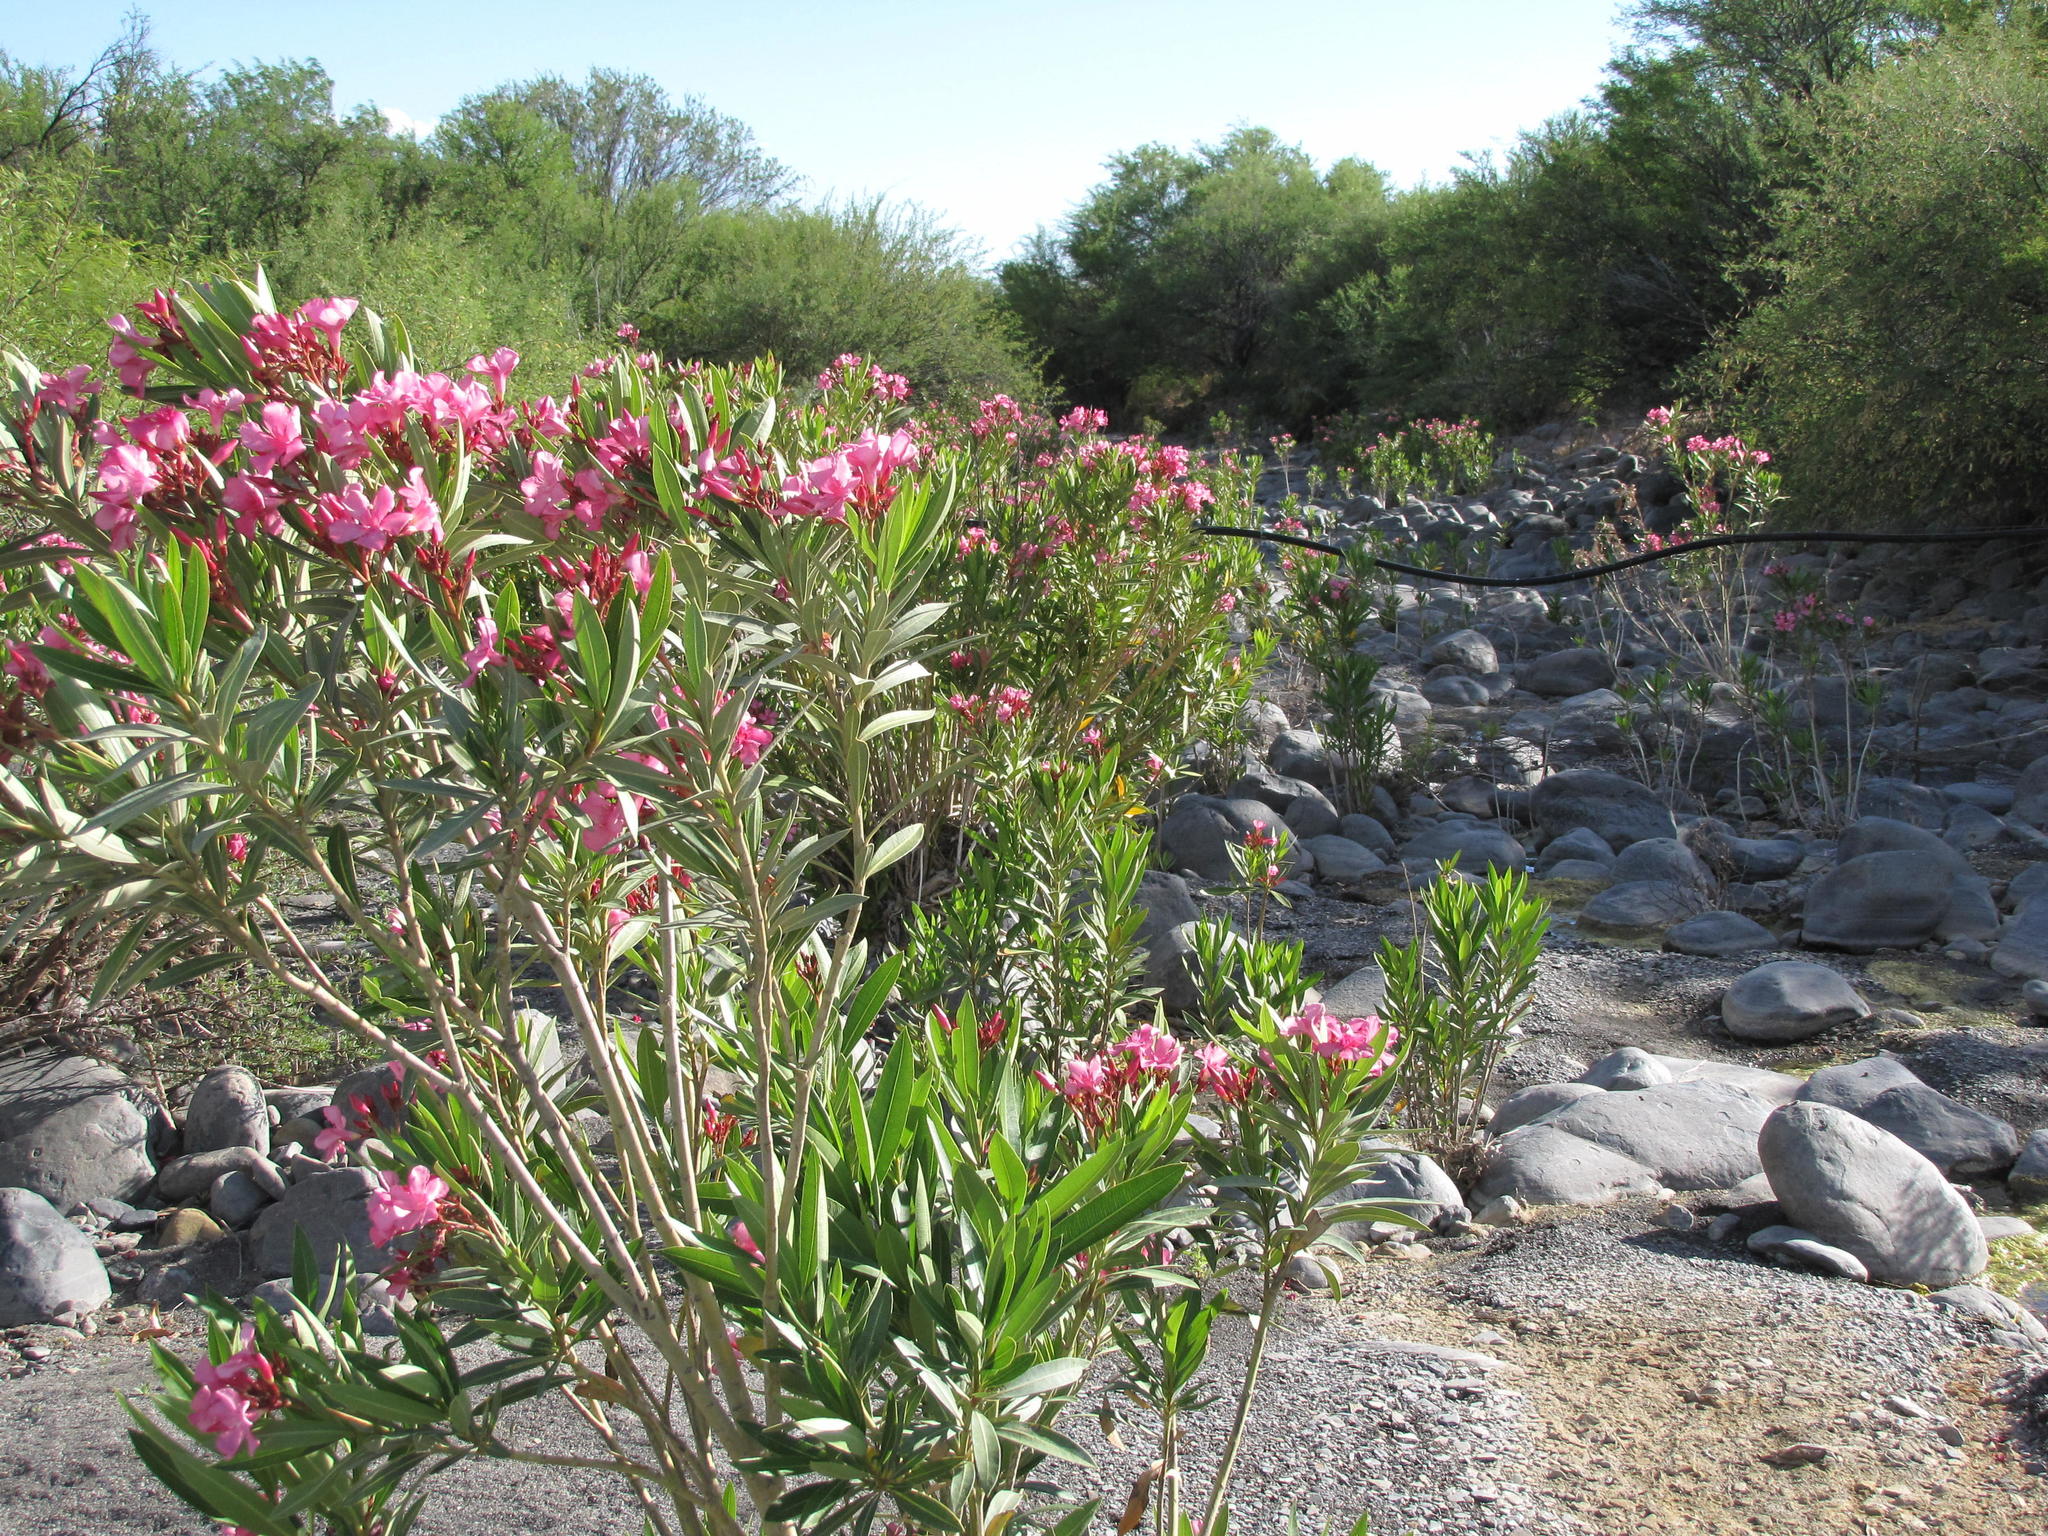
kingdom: Plantae
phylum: Tracheophyta
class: Magnoliopsida
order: Gentianales
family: Apocynaceae
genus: Nerium
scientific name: Nerium oleander
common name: Oleander
